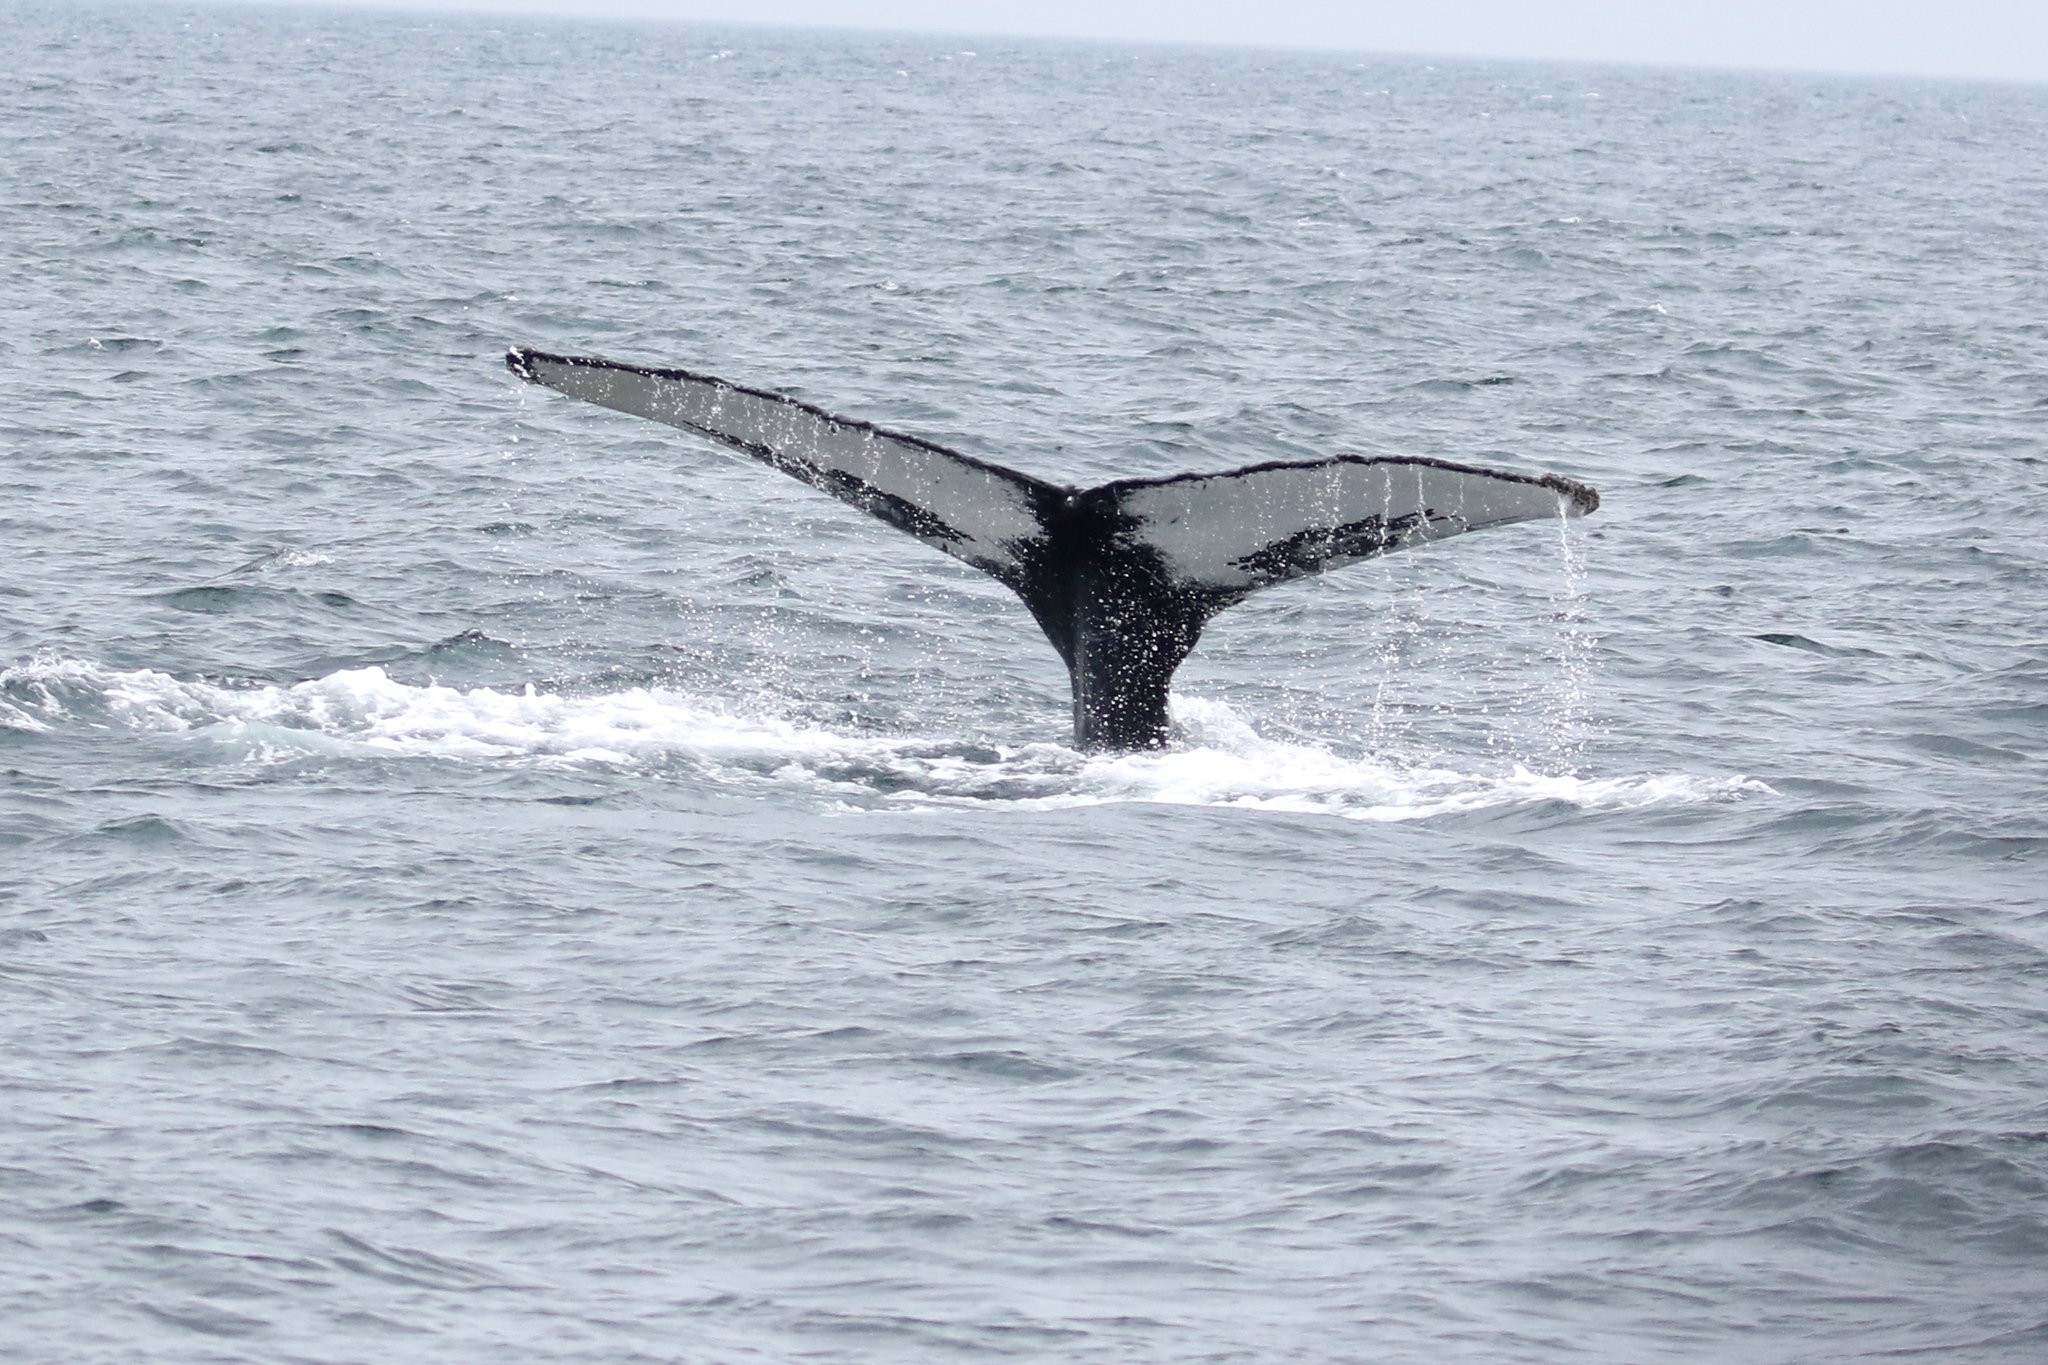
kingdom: Animalia
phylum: Chordata
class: Mammalia
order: Cetacea
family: Balaenopteridae
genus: Megaptera
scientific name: Megaptera novaeangliae
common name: Humpback whale
